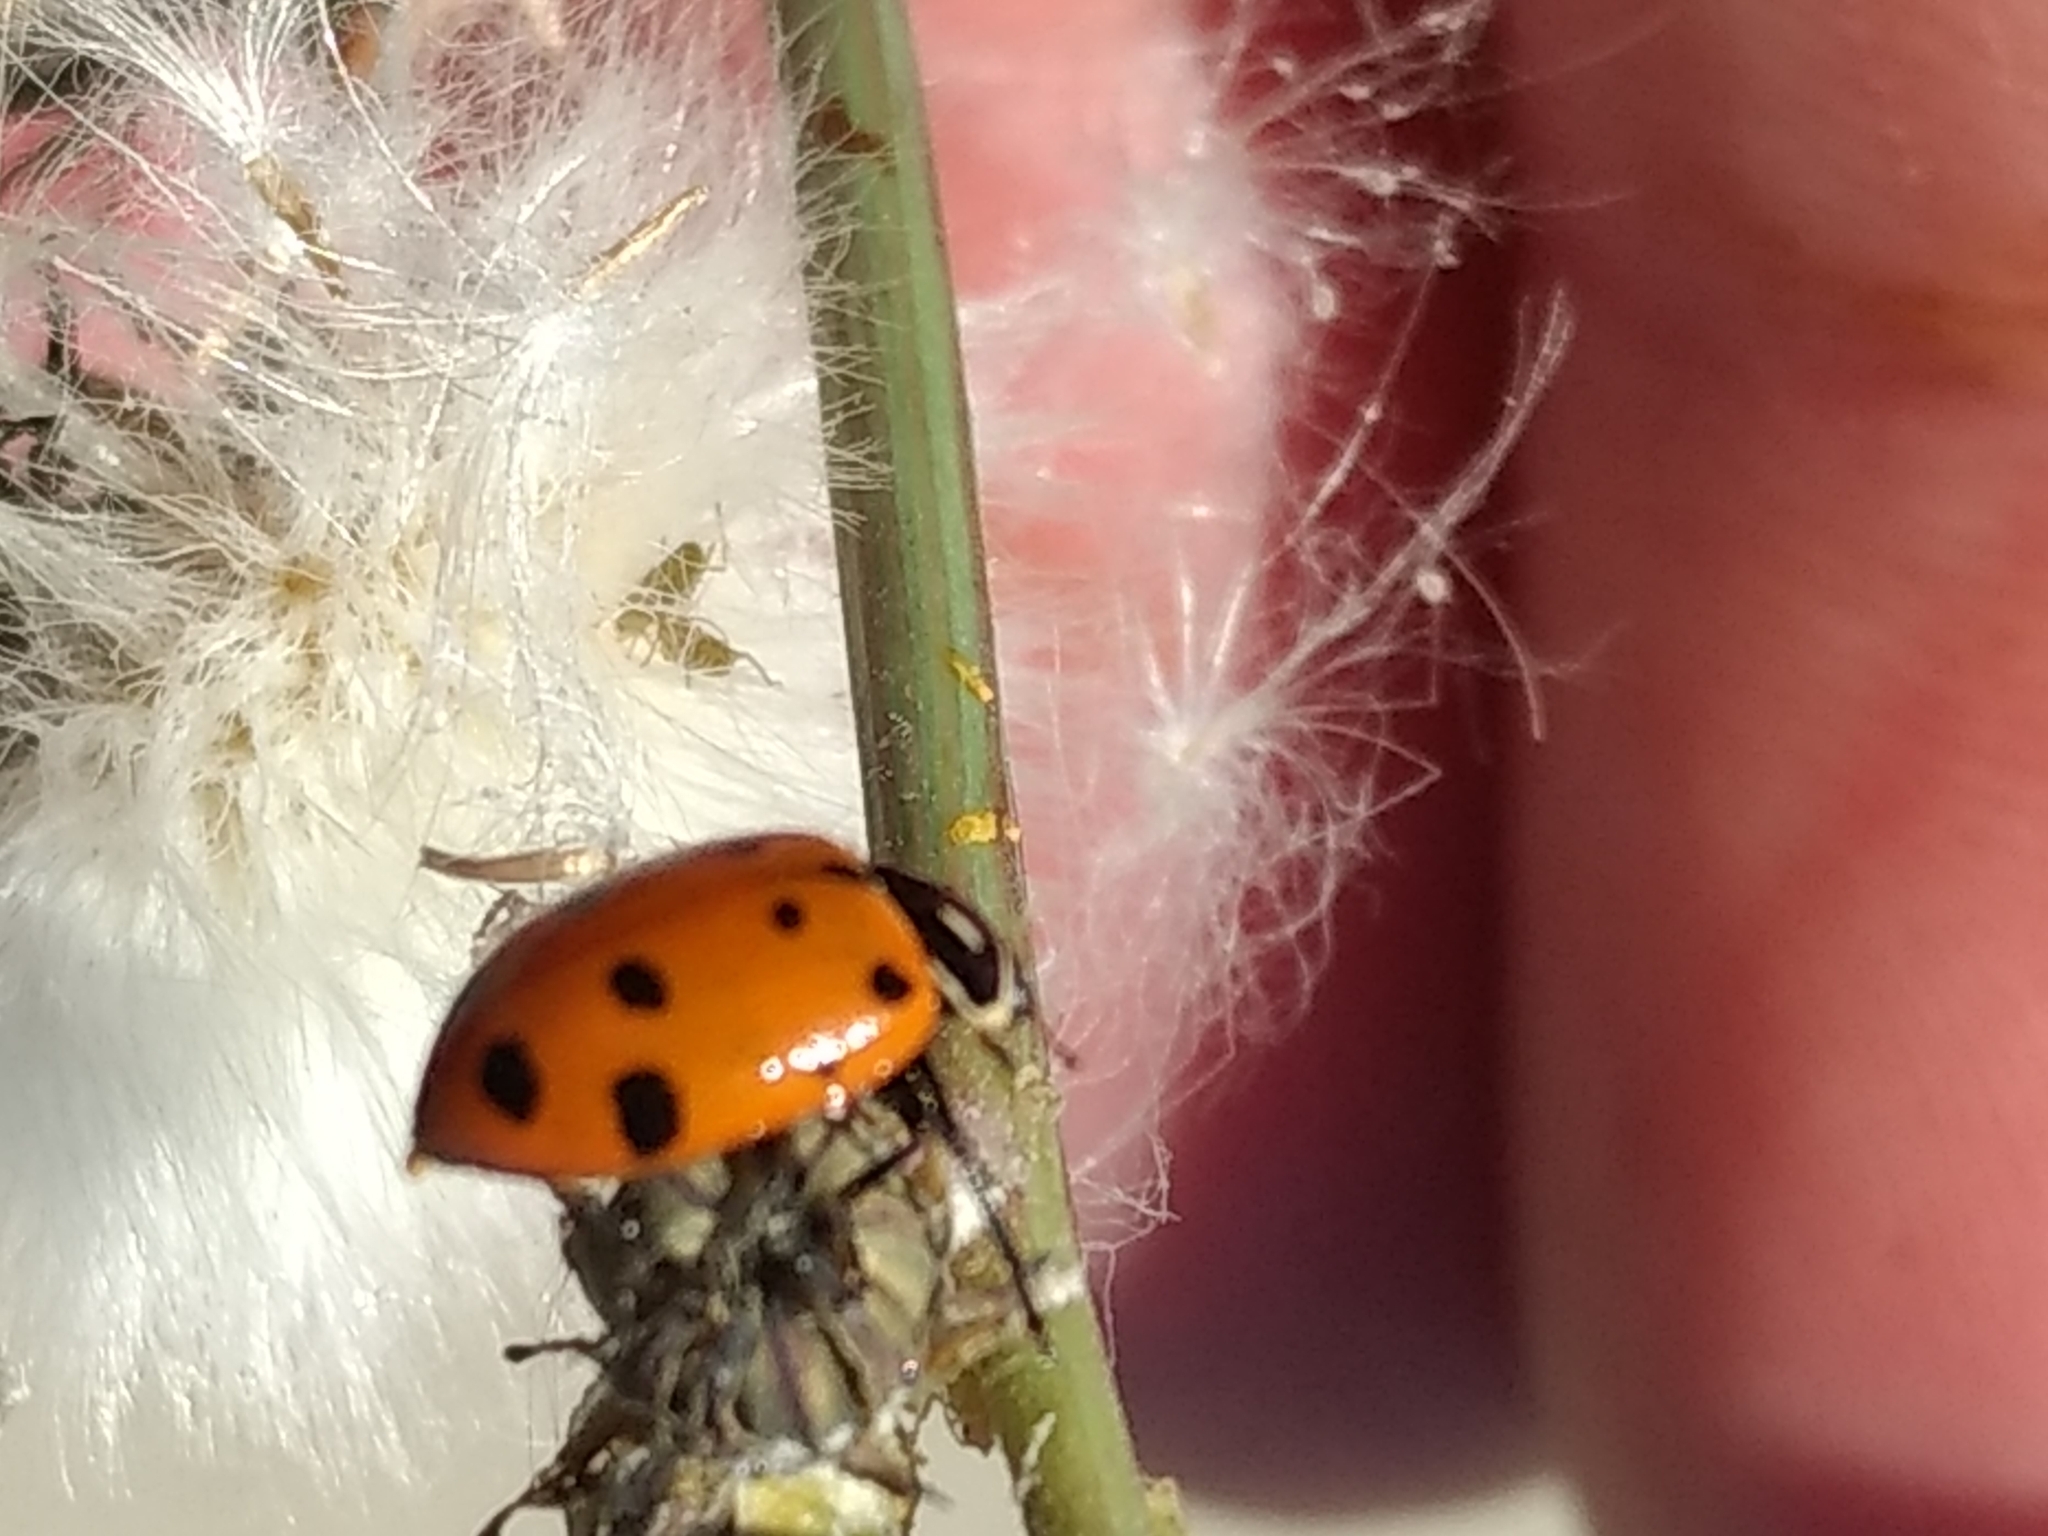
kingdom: Animalia
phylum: Arthropoda
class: Insecta
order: Coleoptera
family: Coccinellidae
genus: Hippodamia
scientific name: Hippodamia convergens
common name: Convergent lady beetle
